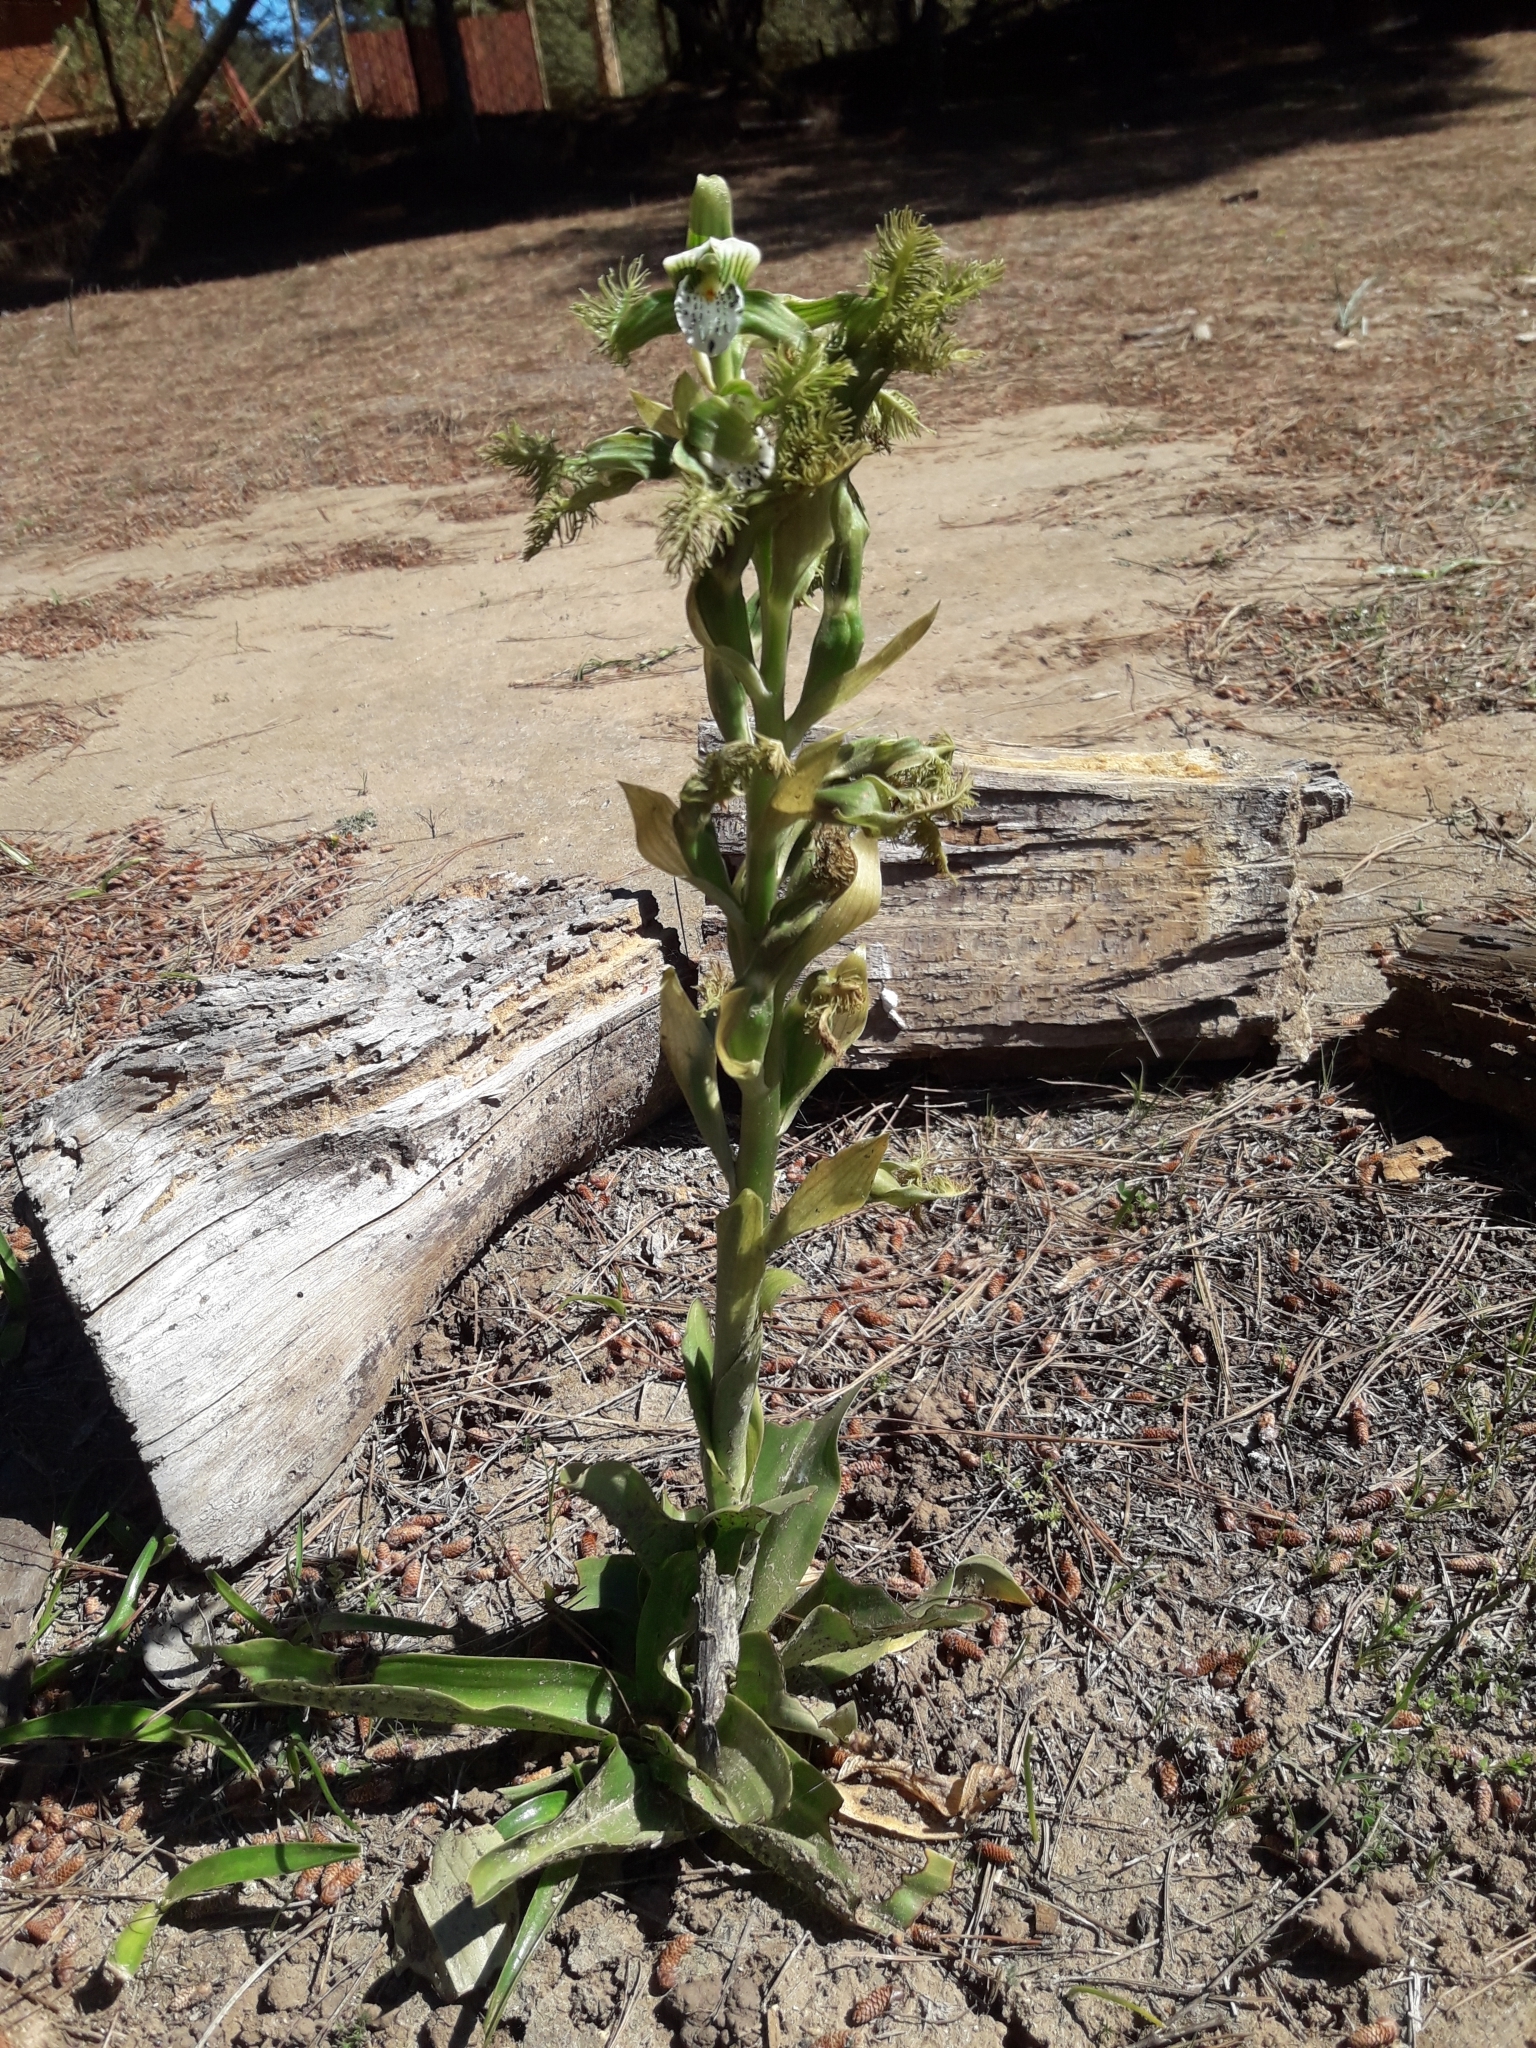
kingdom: Plantae
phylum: Tracheophyta
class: Liliopsida
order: Asparagales
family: Orchidaceae
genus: Bipinnula
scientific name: Bipinnula fimbriata
